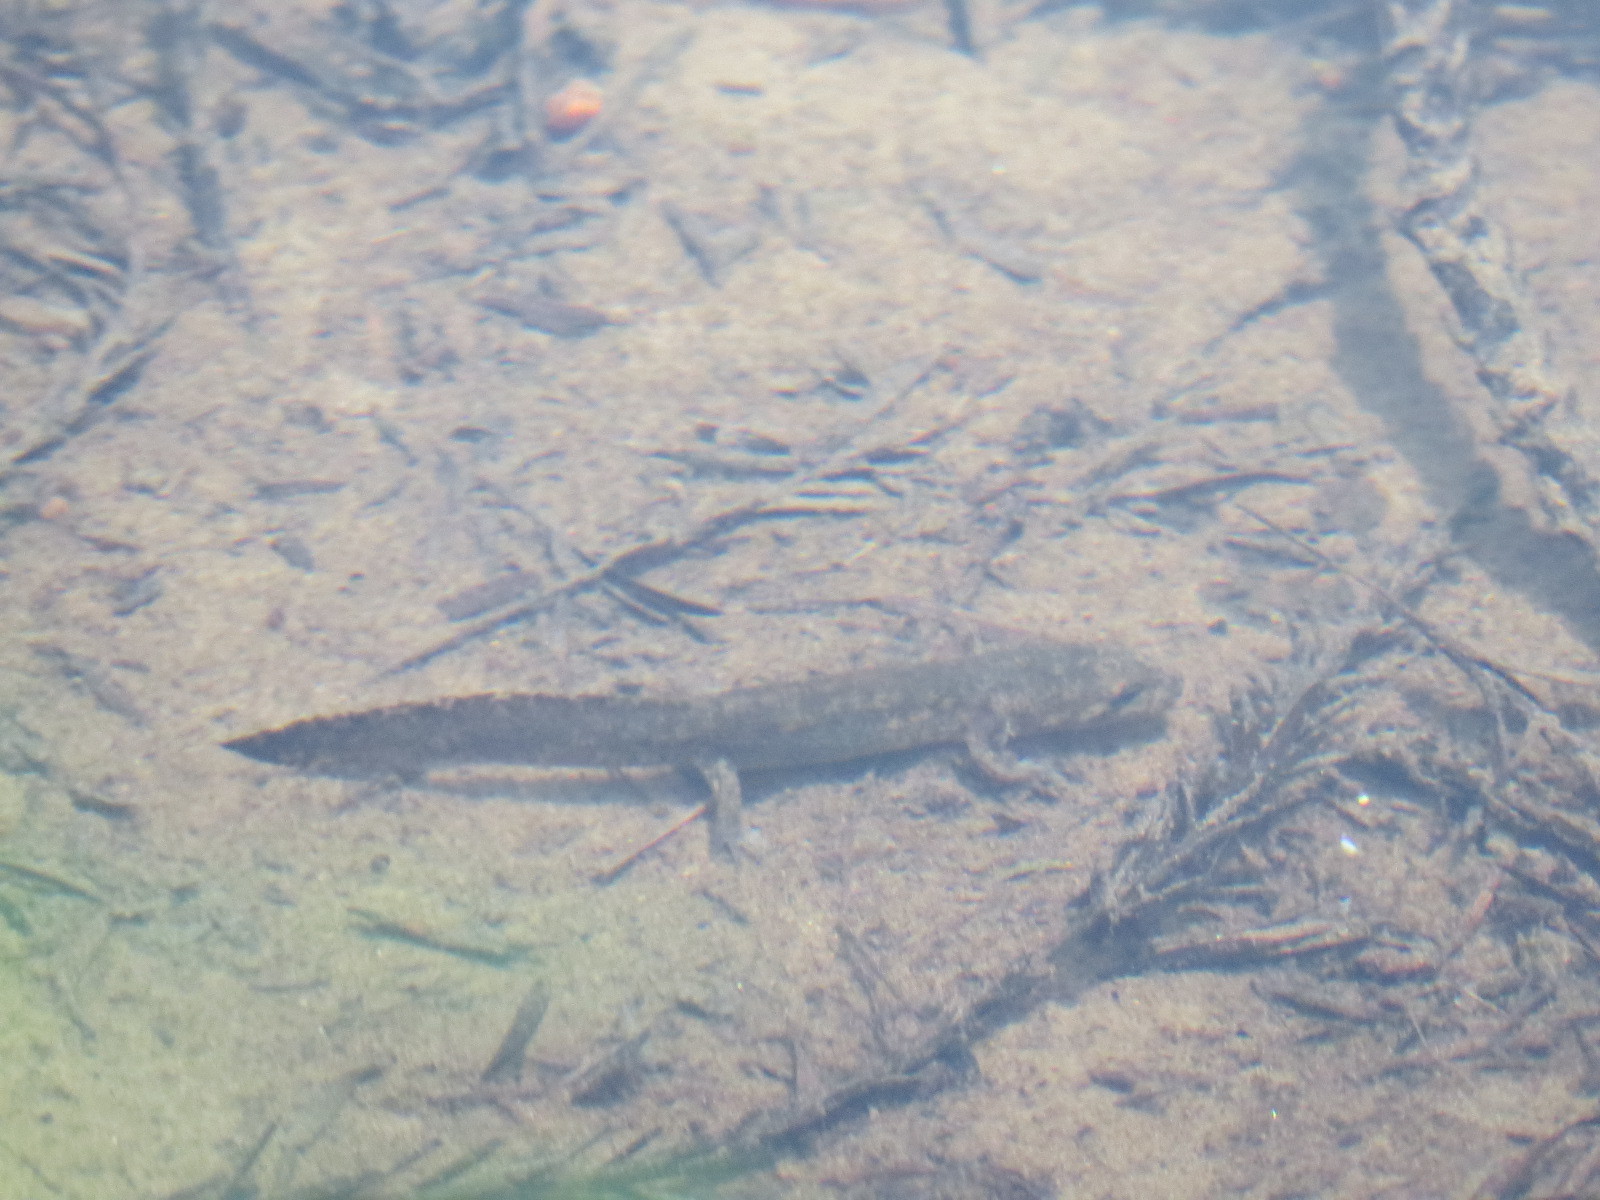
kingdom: Animalia
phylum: Chordata
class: Amphibia
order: Caudata
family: Ambystomatidae
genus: Dicamptodon
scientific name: Dicamptodon ensatus
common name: California giant salamander
